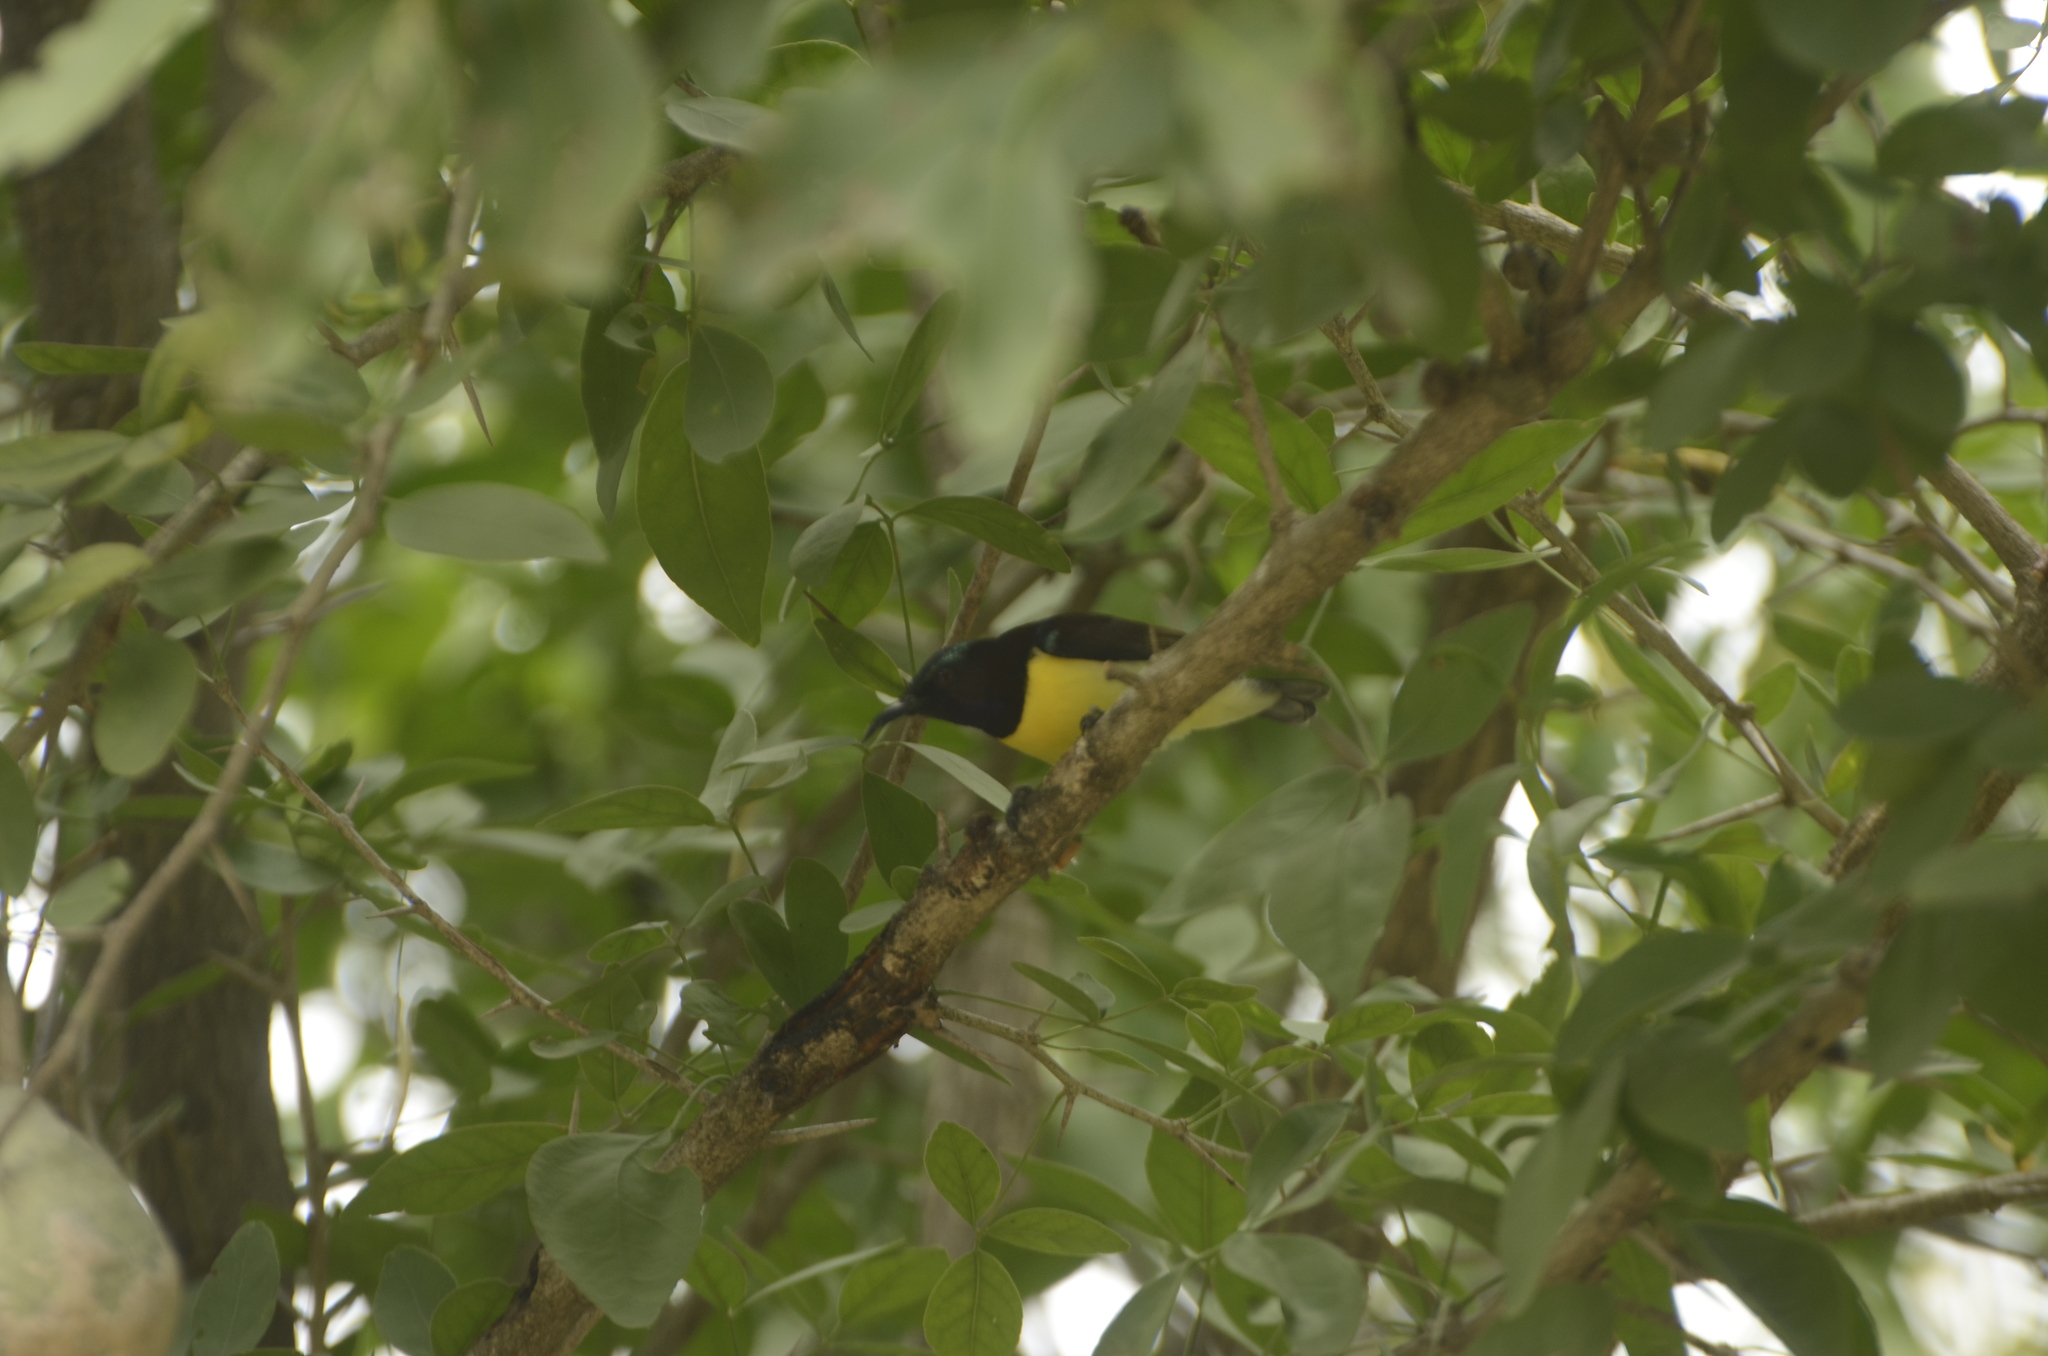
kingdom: Animalia
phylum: Chordata
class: Aves
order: Passeriformes
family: Nectariniidae
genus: Leptocoma
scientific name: Leptocoma zeylonica
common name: Purple-rumped sunbird
